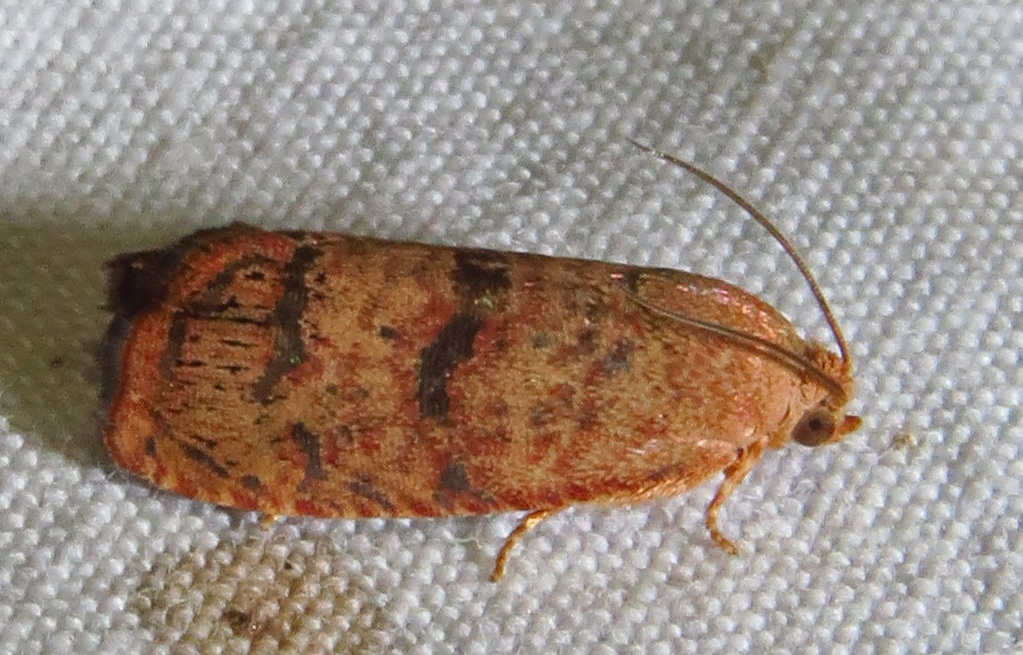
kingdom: Animalia
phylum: Arthropoda
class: Insecta
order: Lepidoptera
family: Tortricidae
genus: Cydia
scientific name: Cydia latiferreana
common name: Filbertworm moth
